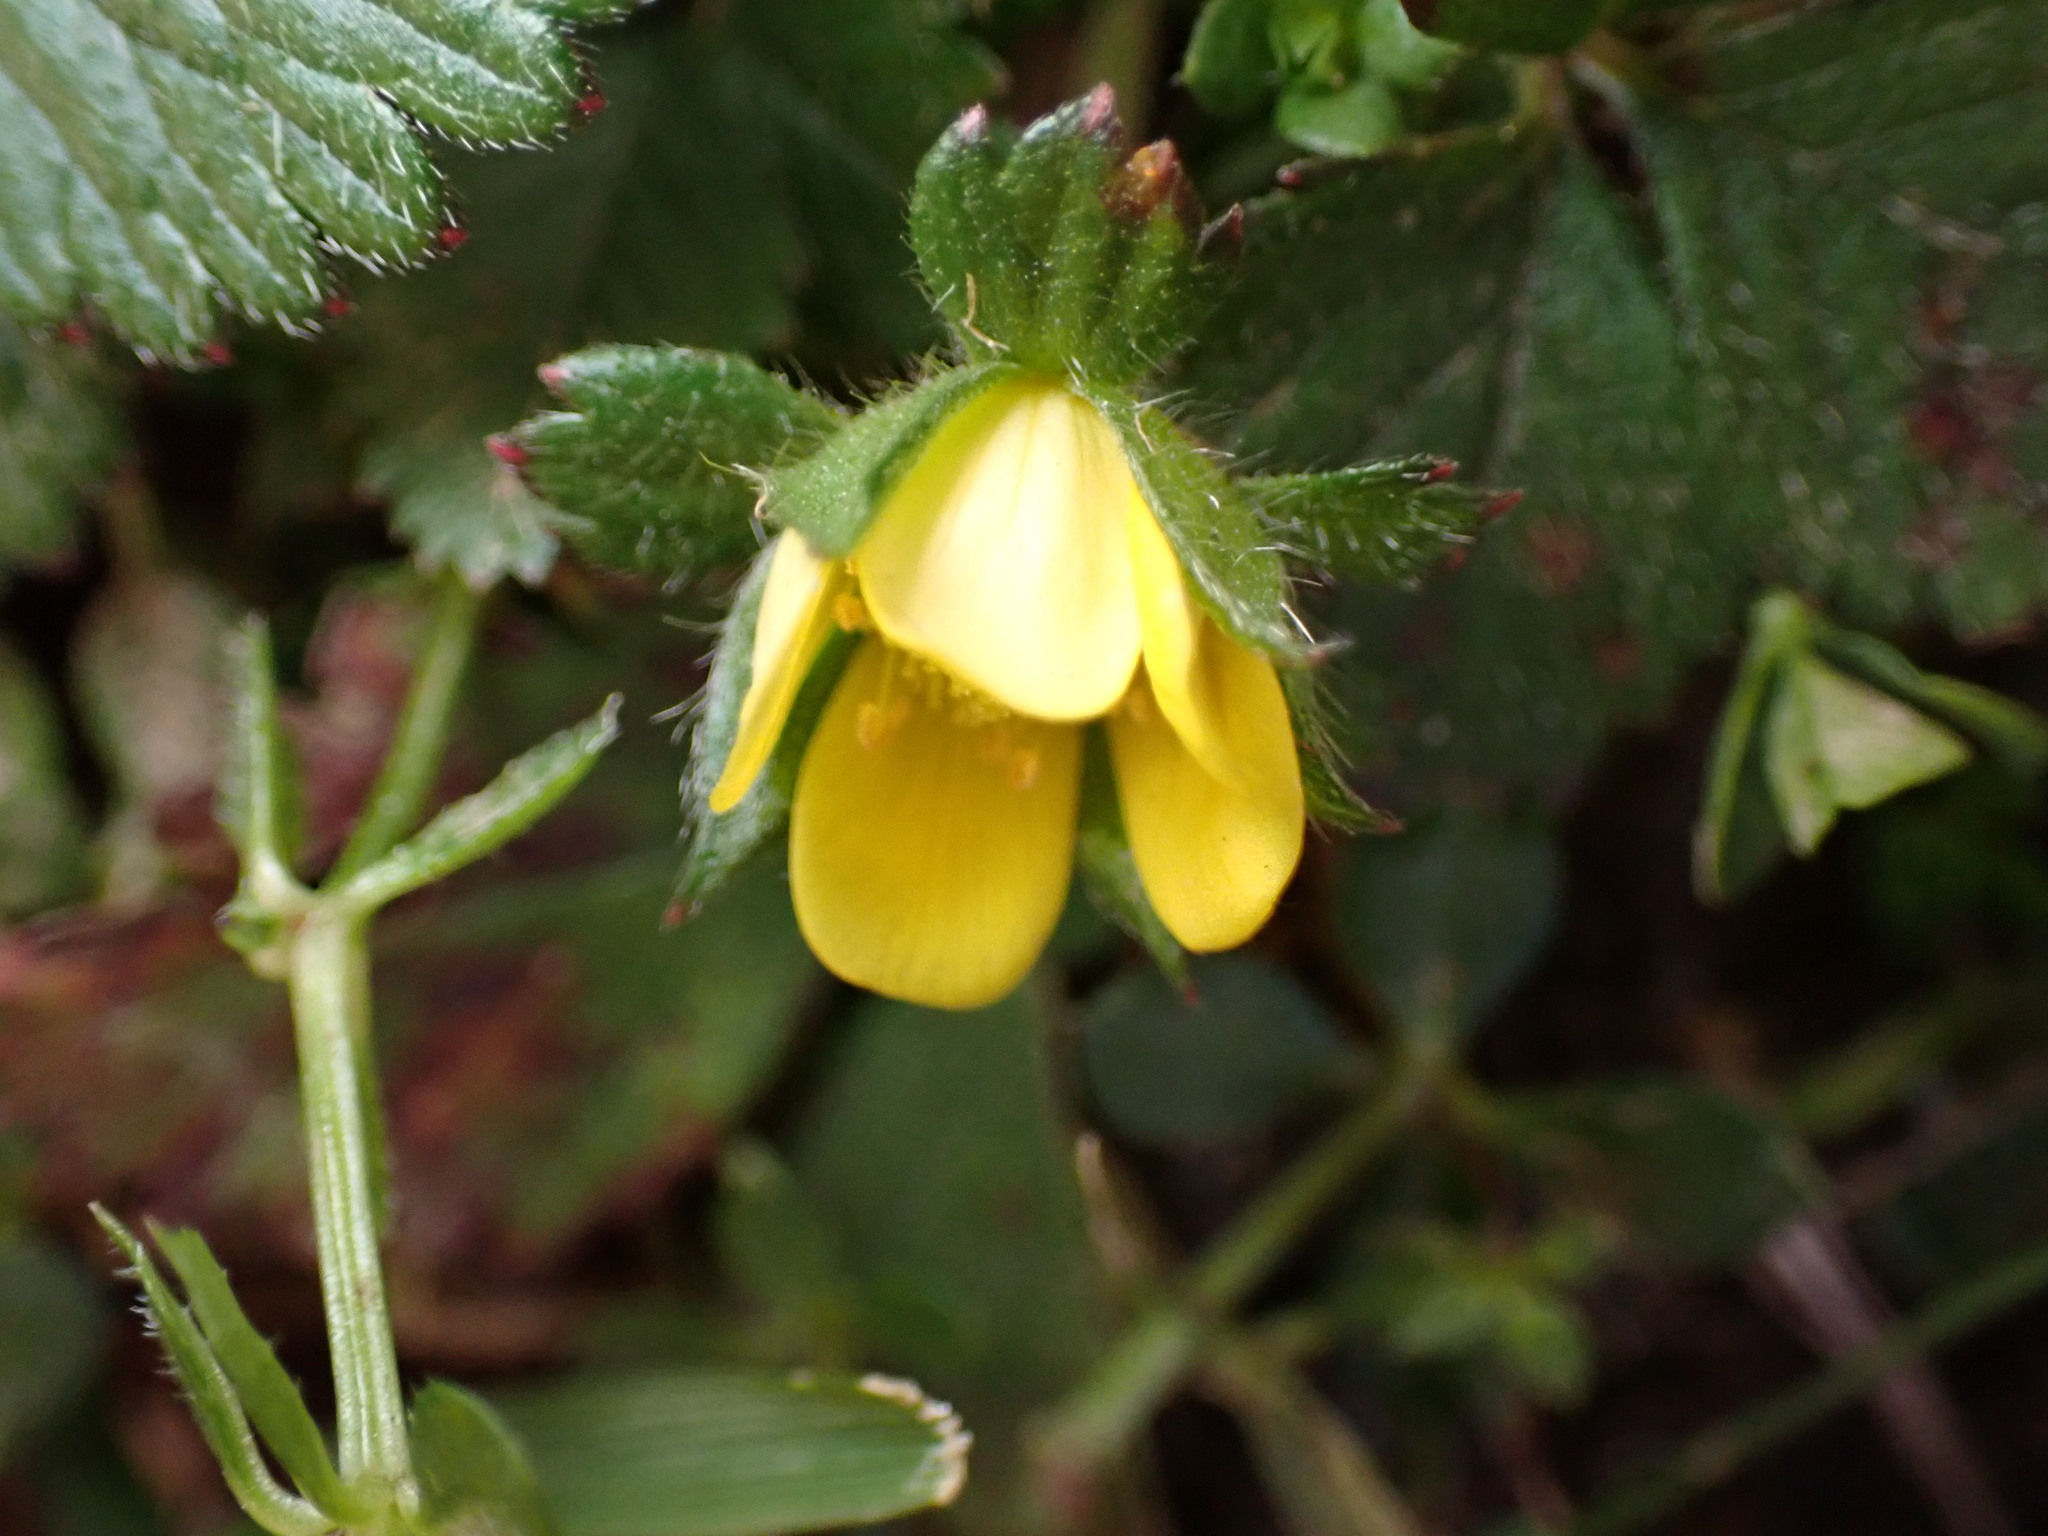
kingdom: Plantae
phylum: Tracheophyta
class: Magnoliopsida
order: Rosales
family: Rosaceae
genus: Potentilla
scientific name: Potentilla indica
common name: Yellow-flowered strawberry
